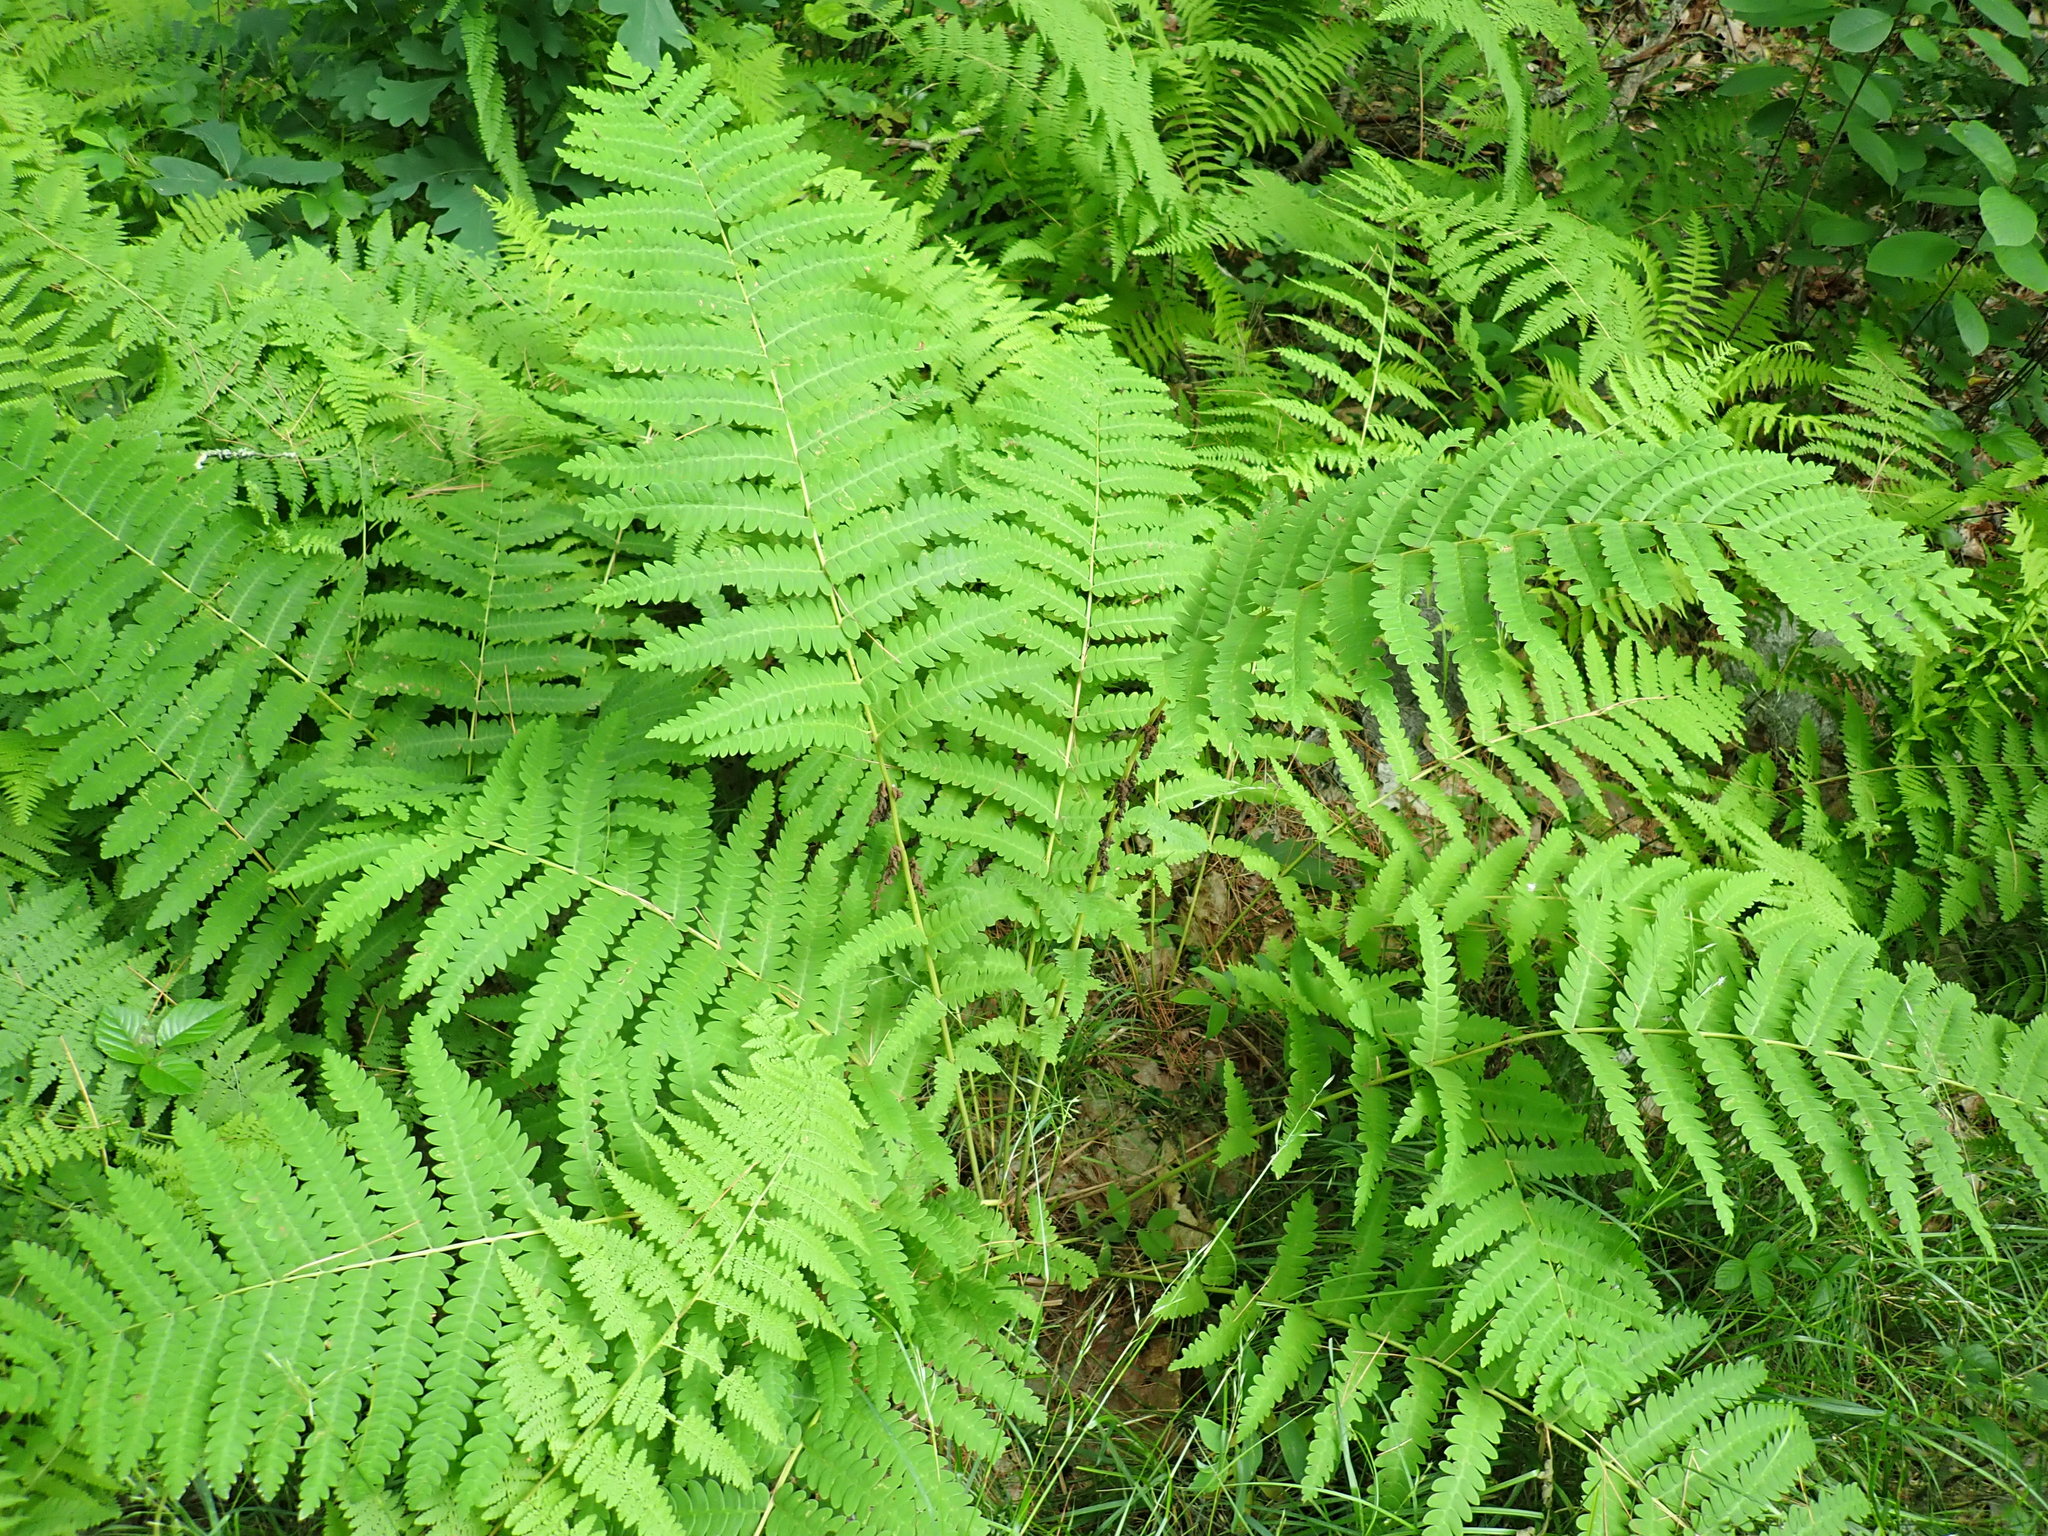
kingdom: Plantae
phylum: Tracheophyta
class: Polypodiopsida
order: Osmundales
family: Osmundaceae
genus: Claytosmunda
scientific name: Claytosmunda claytoniana
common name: Clayton's fern
